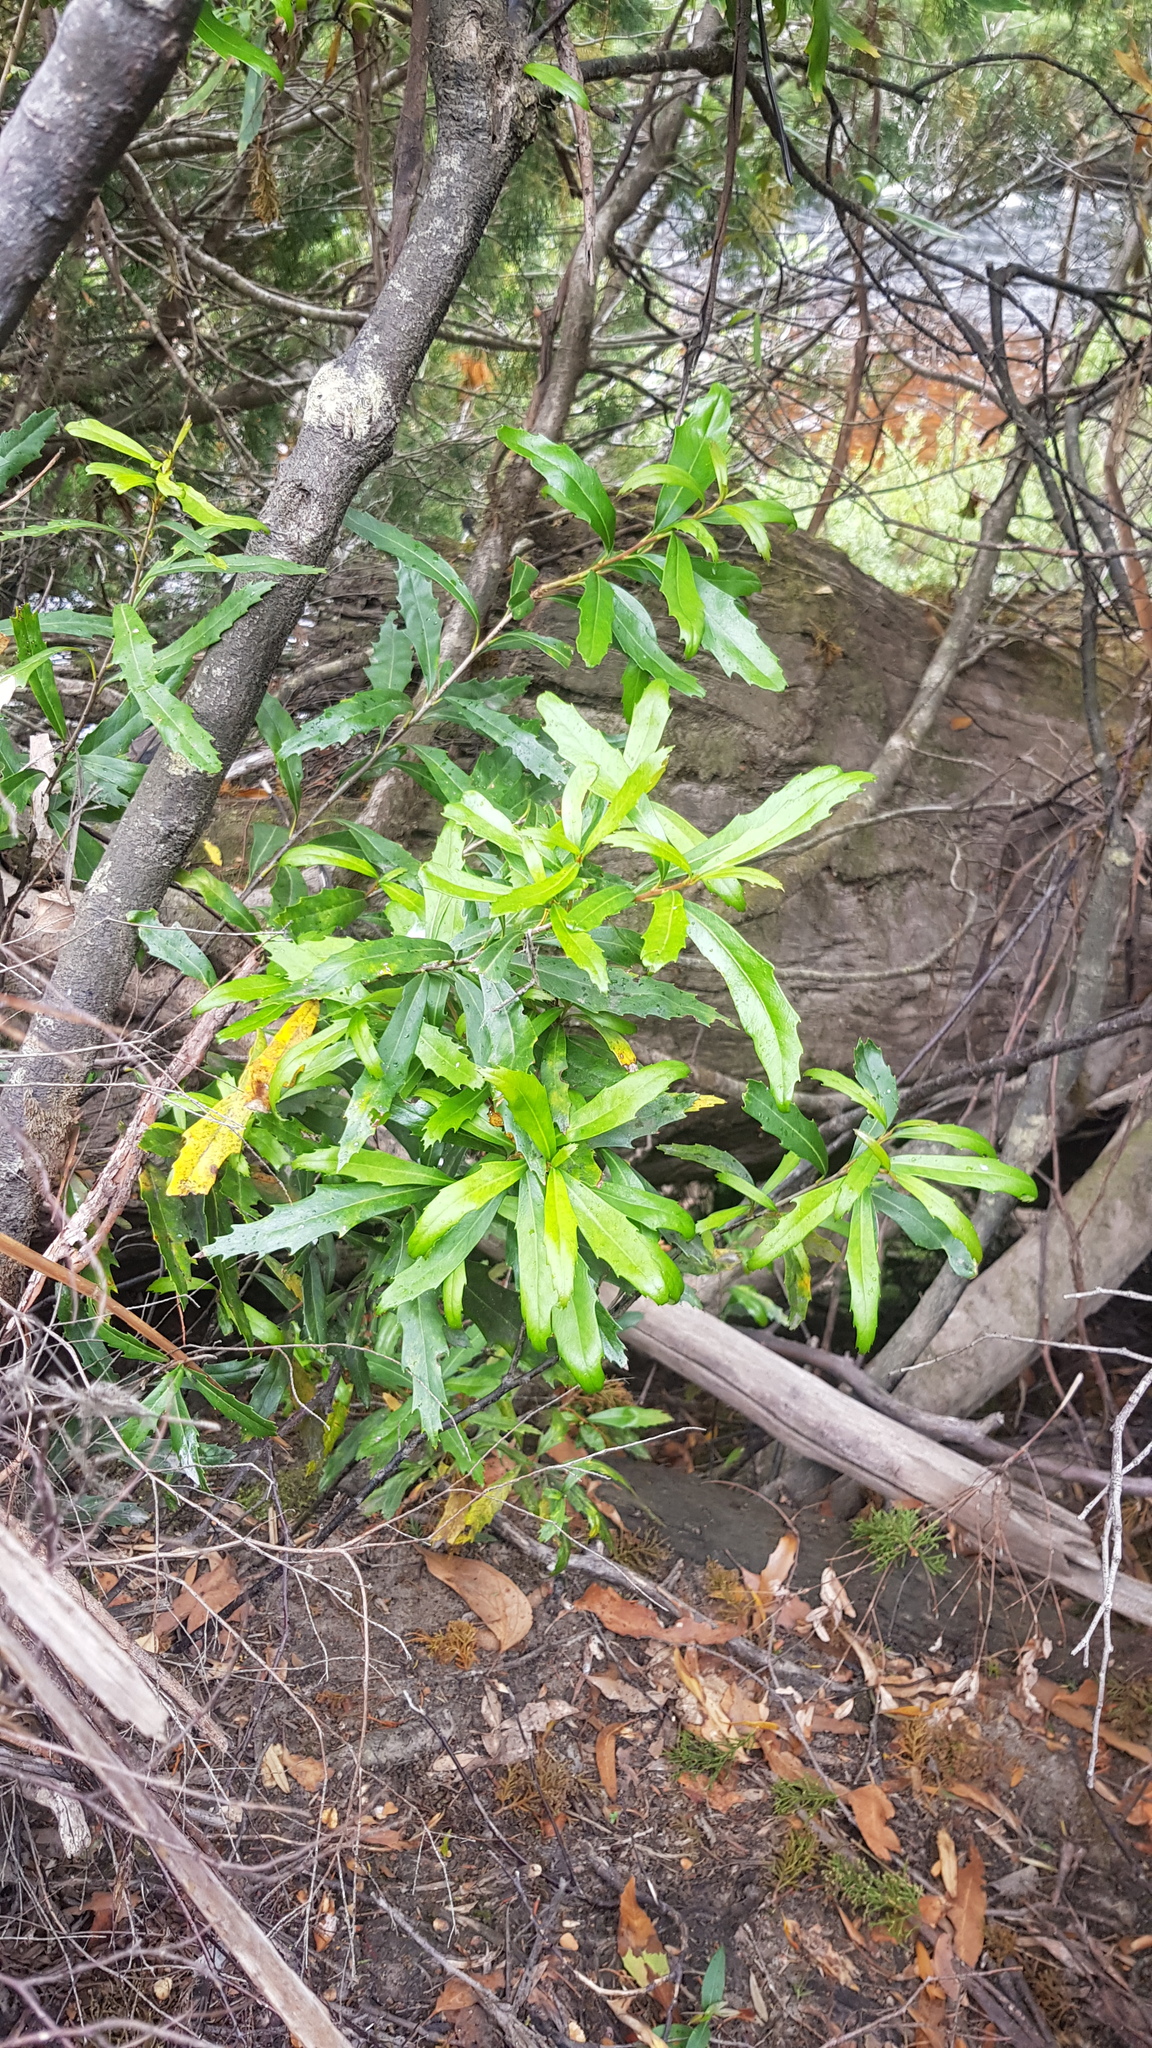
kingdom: Plantae
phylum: Tracheophyta
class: Magnoliopsida
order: Proteales
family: Proteaceae
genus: Cenarrhenes
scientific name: Cenarrhenes nitida
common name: Native plum
